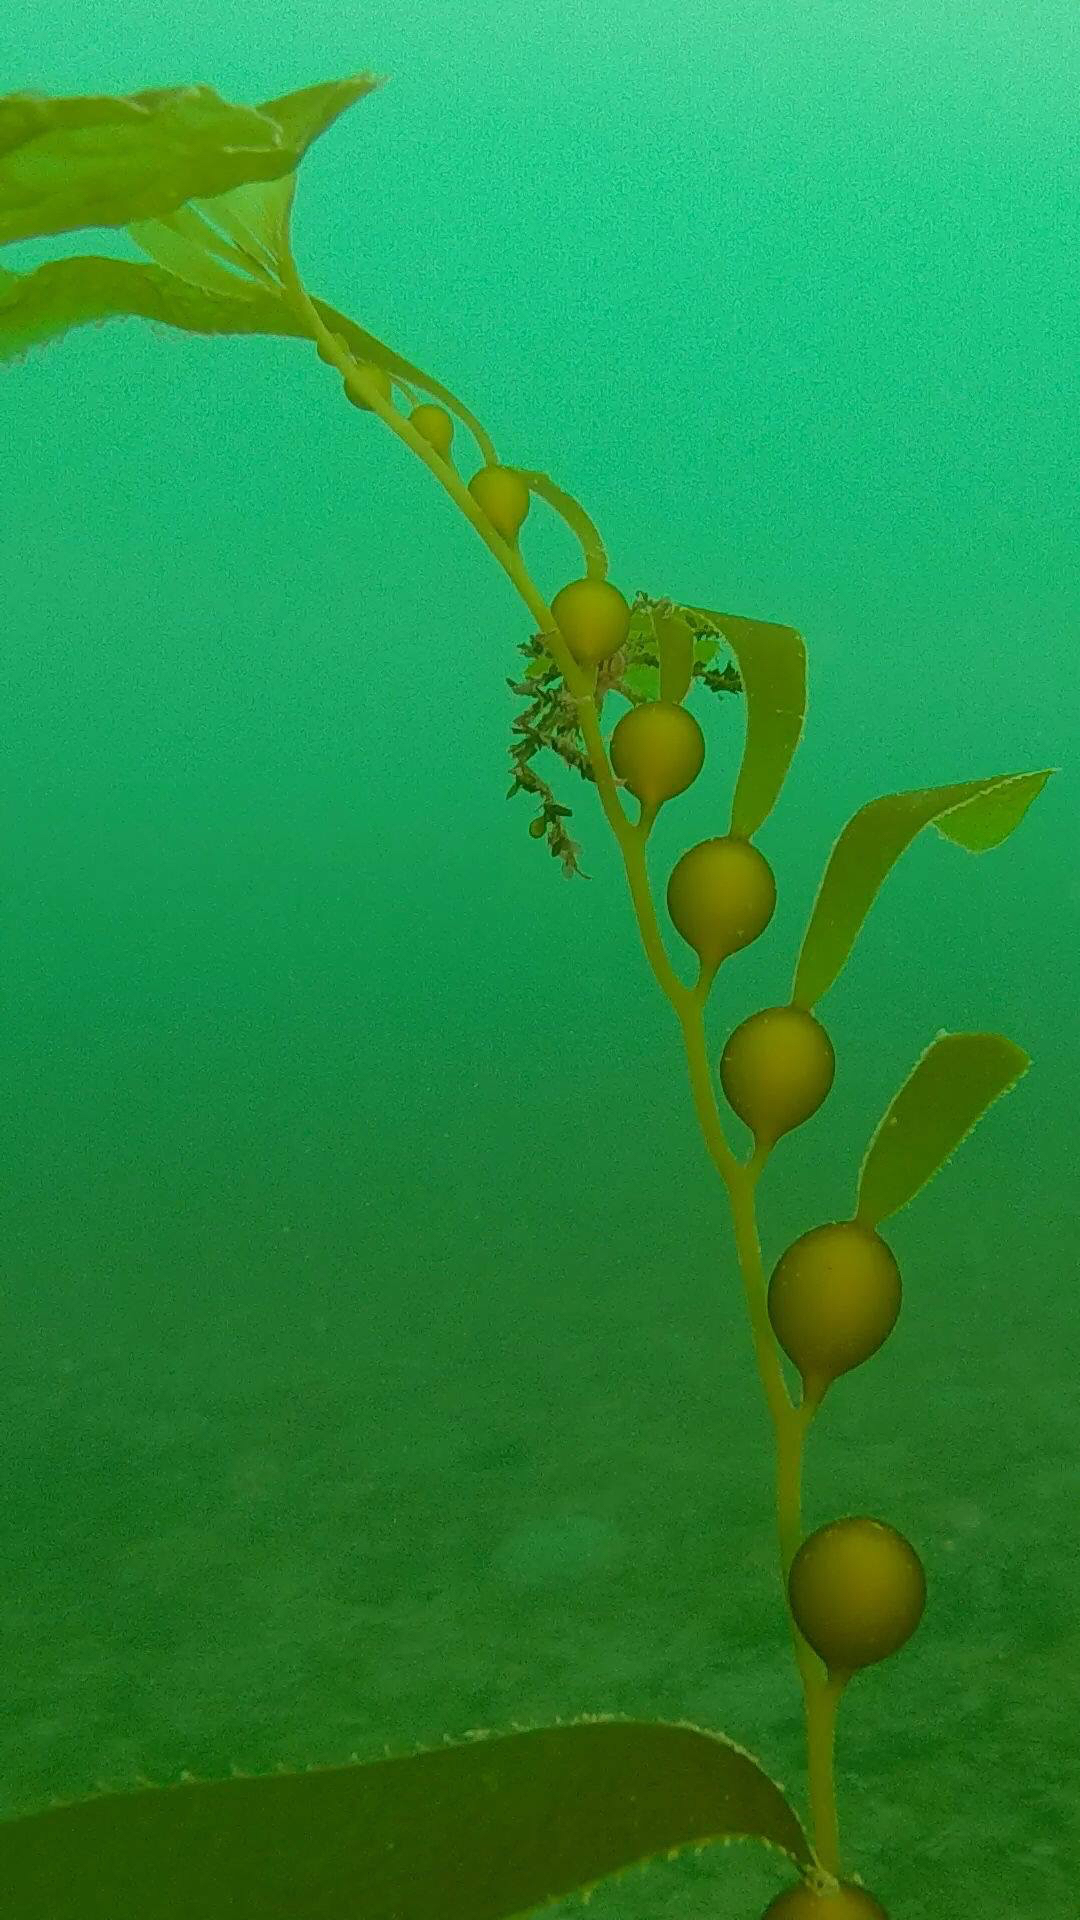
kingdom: Chromista
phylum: Ochrophyta
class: Phaeophyceae
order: Laminariales
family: Laminariaceae
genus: Macrocystis
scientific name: Macrocystis pyrifera
